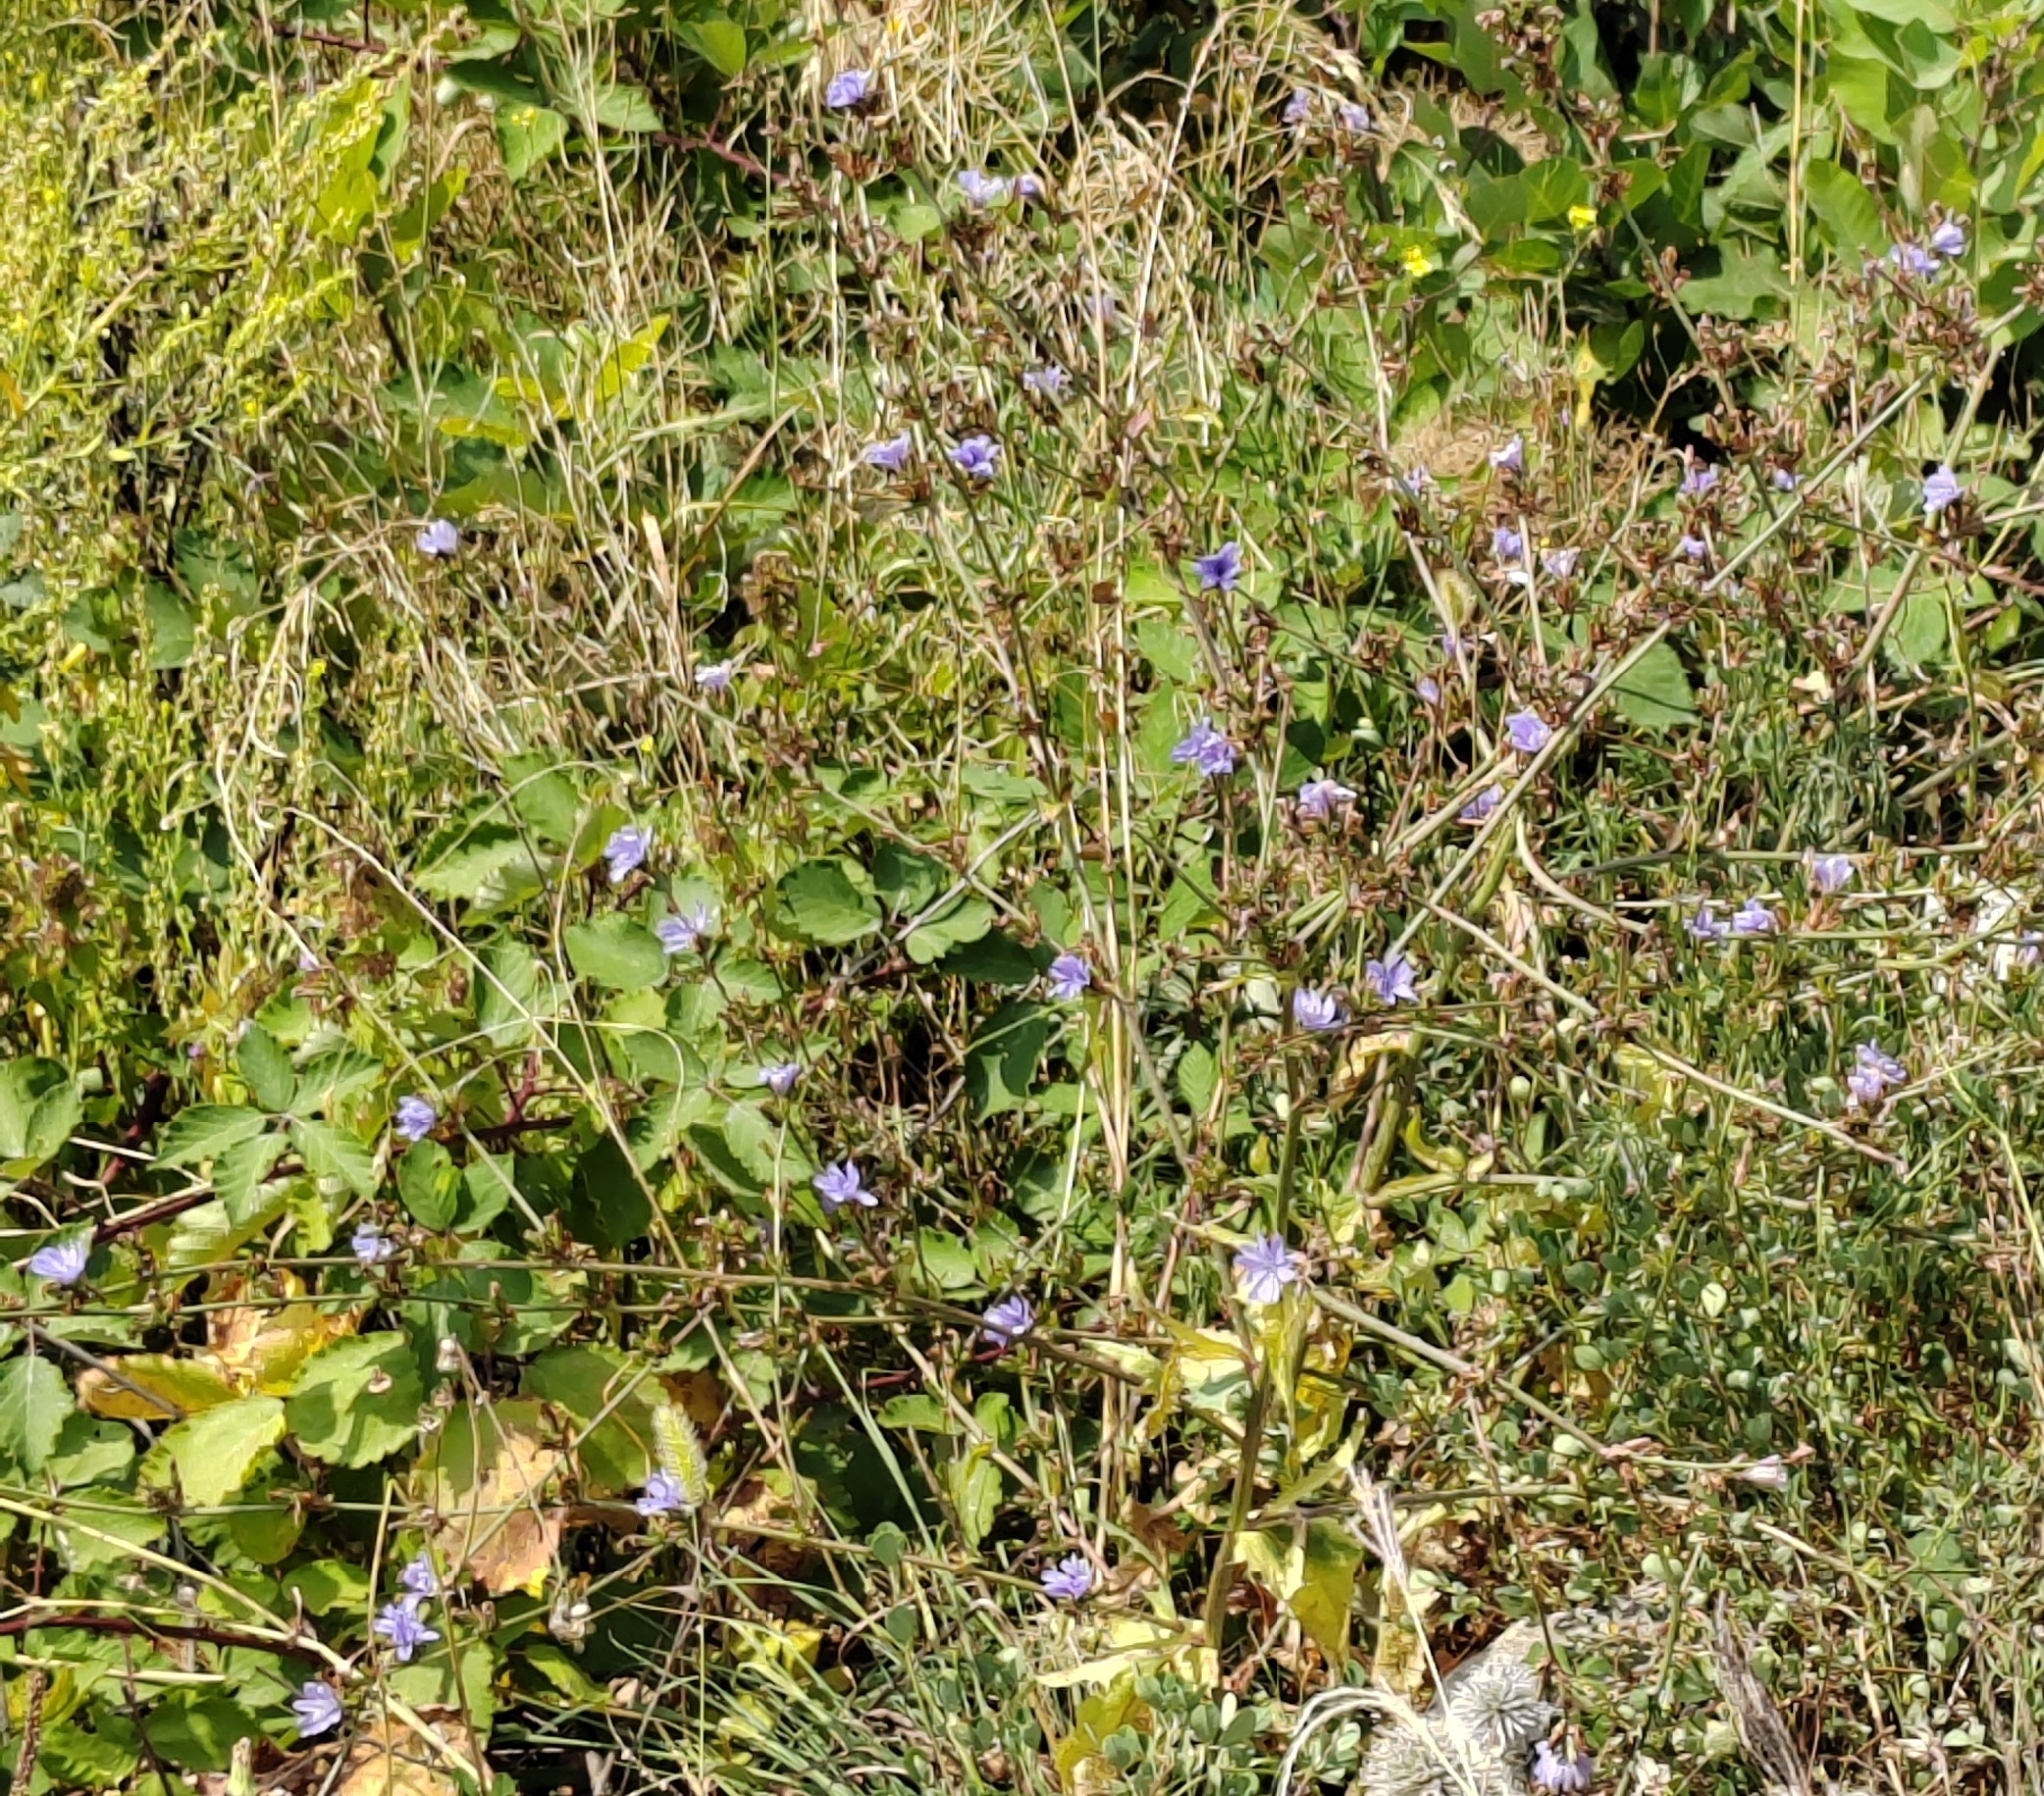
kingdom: Plantae
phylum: Tracheophyta
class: Magnoliopsida
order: Asterales
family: Asteraceae
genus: Cichorium
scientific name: Cichorium intybus
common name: Chicory
